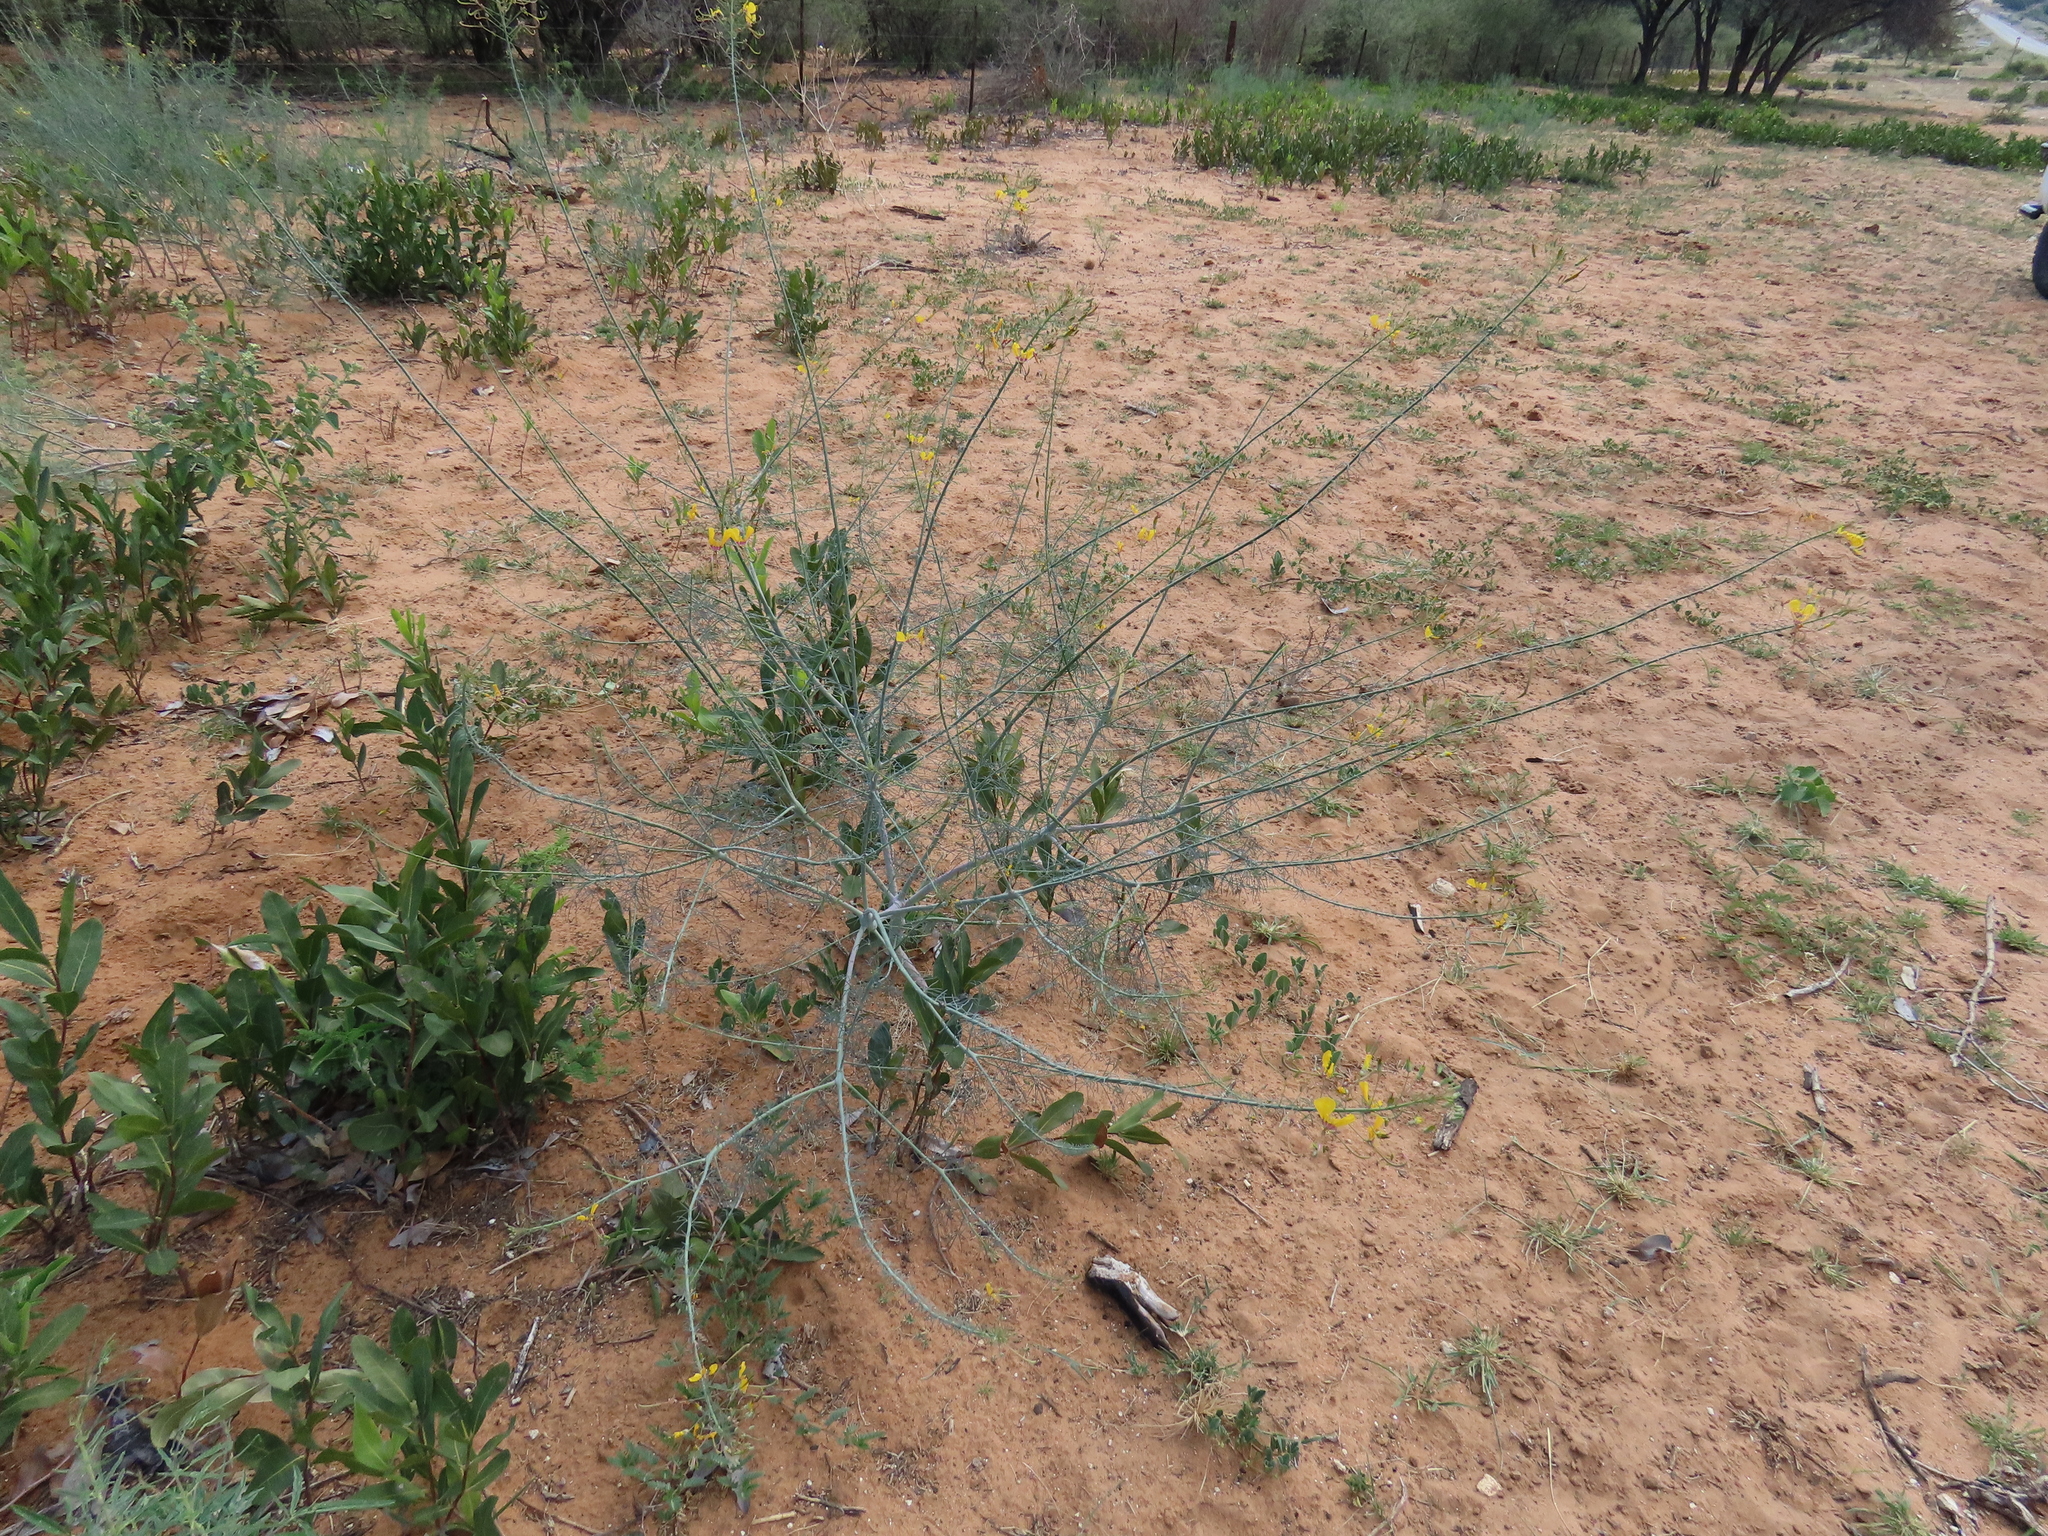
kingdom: Plantae
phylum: Tracheophyta
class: Magnoliopsida
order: Brassicales
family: Cleomaceae
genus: Coalisina
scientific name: Coalisina angustifolia
